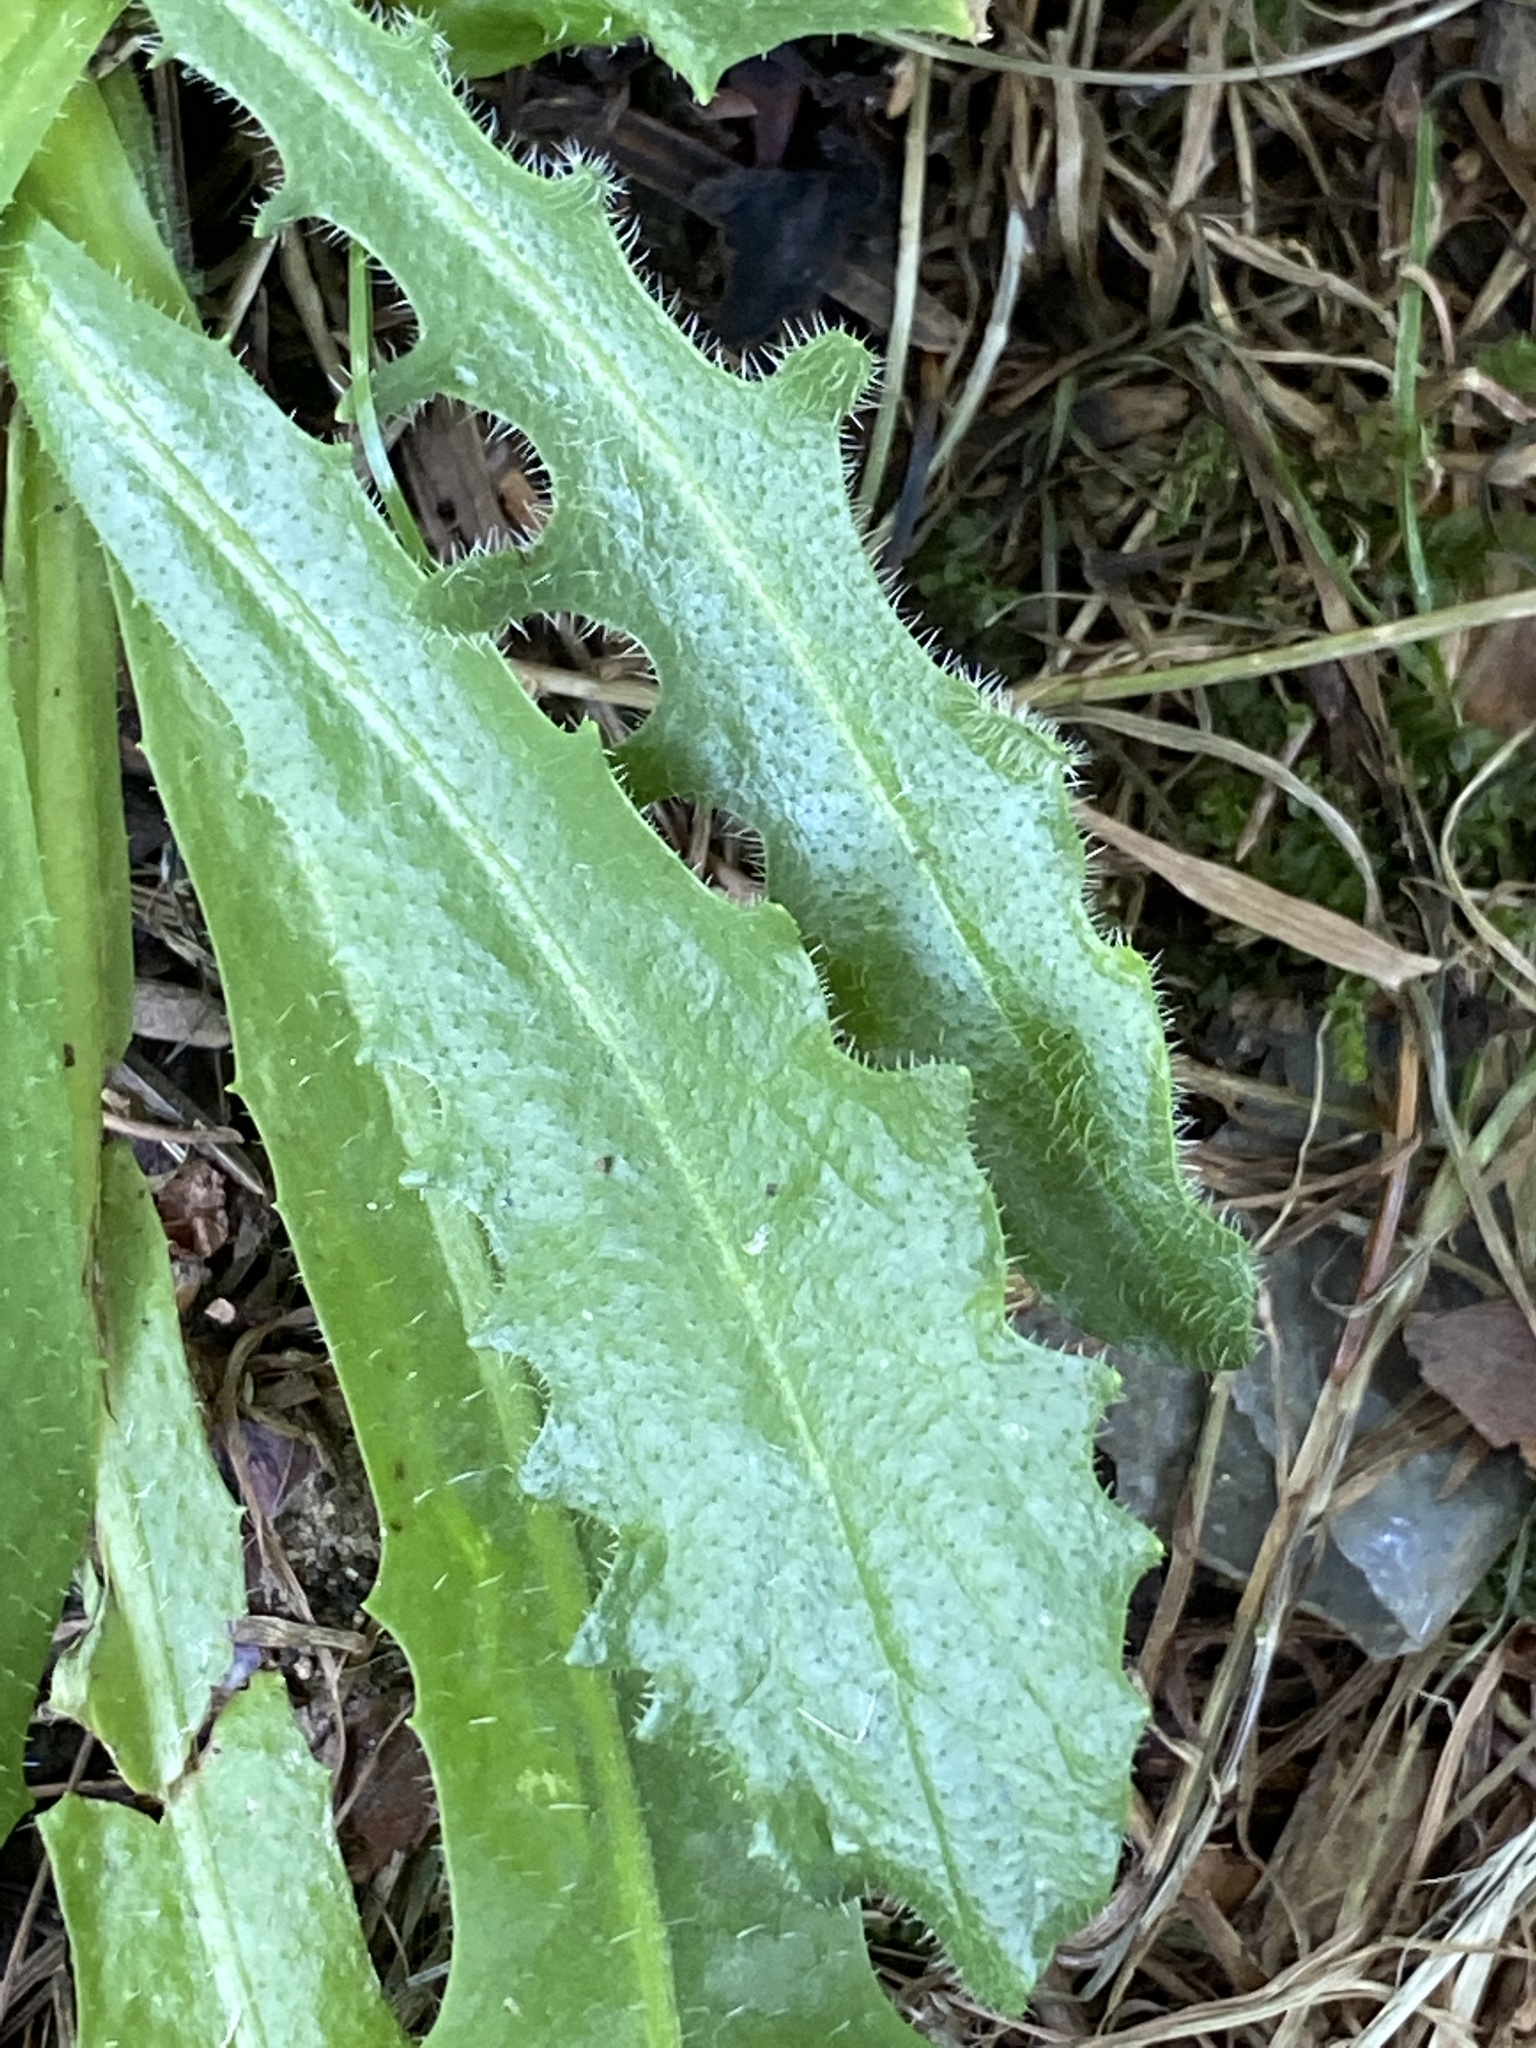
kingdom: Plantae
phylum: Tracheophyta
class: Magnoliopsida
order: Asterales
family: Asteraceae
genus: Hypochaeris
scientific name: Hypochaeris radicata
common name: Flatweed
